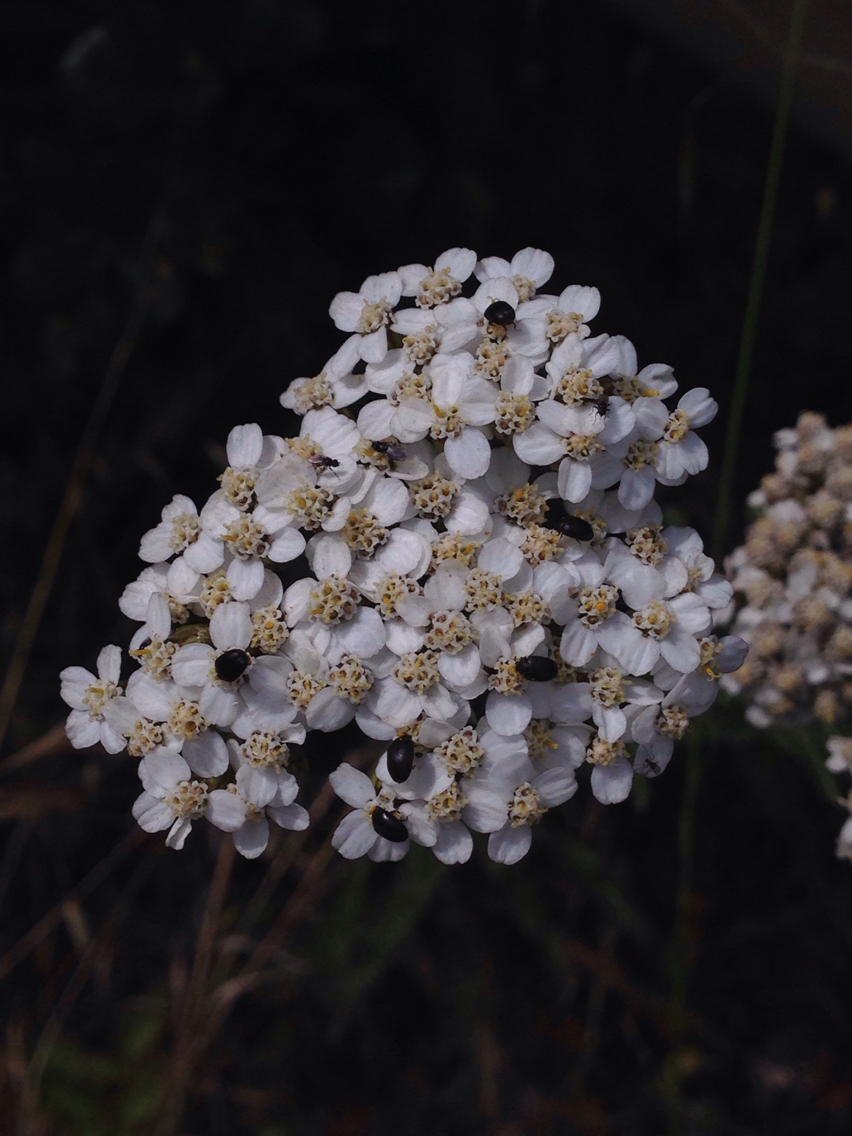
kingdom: Plantae
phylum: Tracheophyta
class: Magnoliopsida
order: Asterales
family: Asteraceae
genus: Achillea
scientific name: Achillea millefolium
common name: Yarrow
